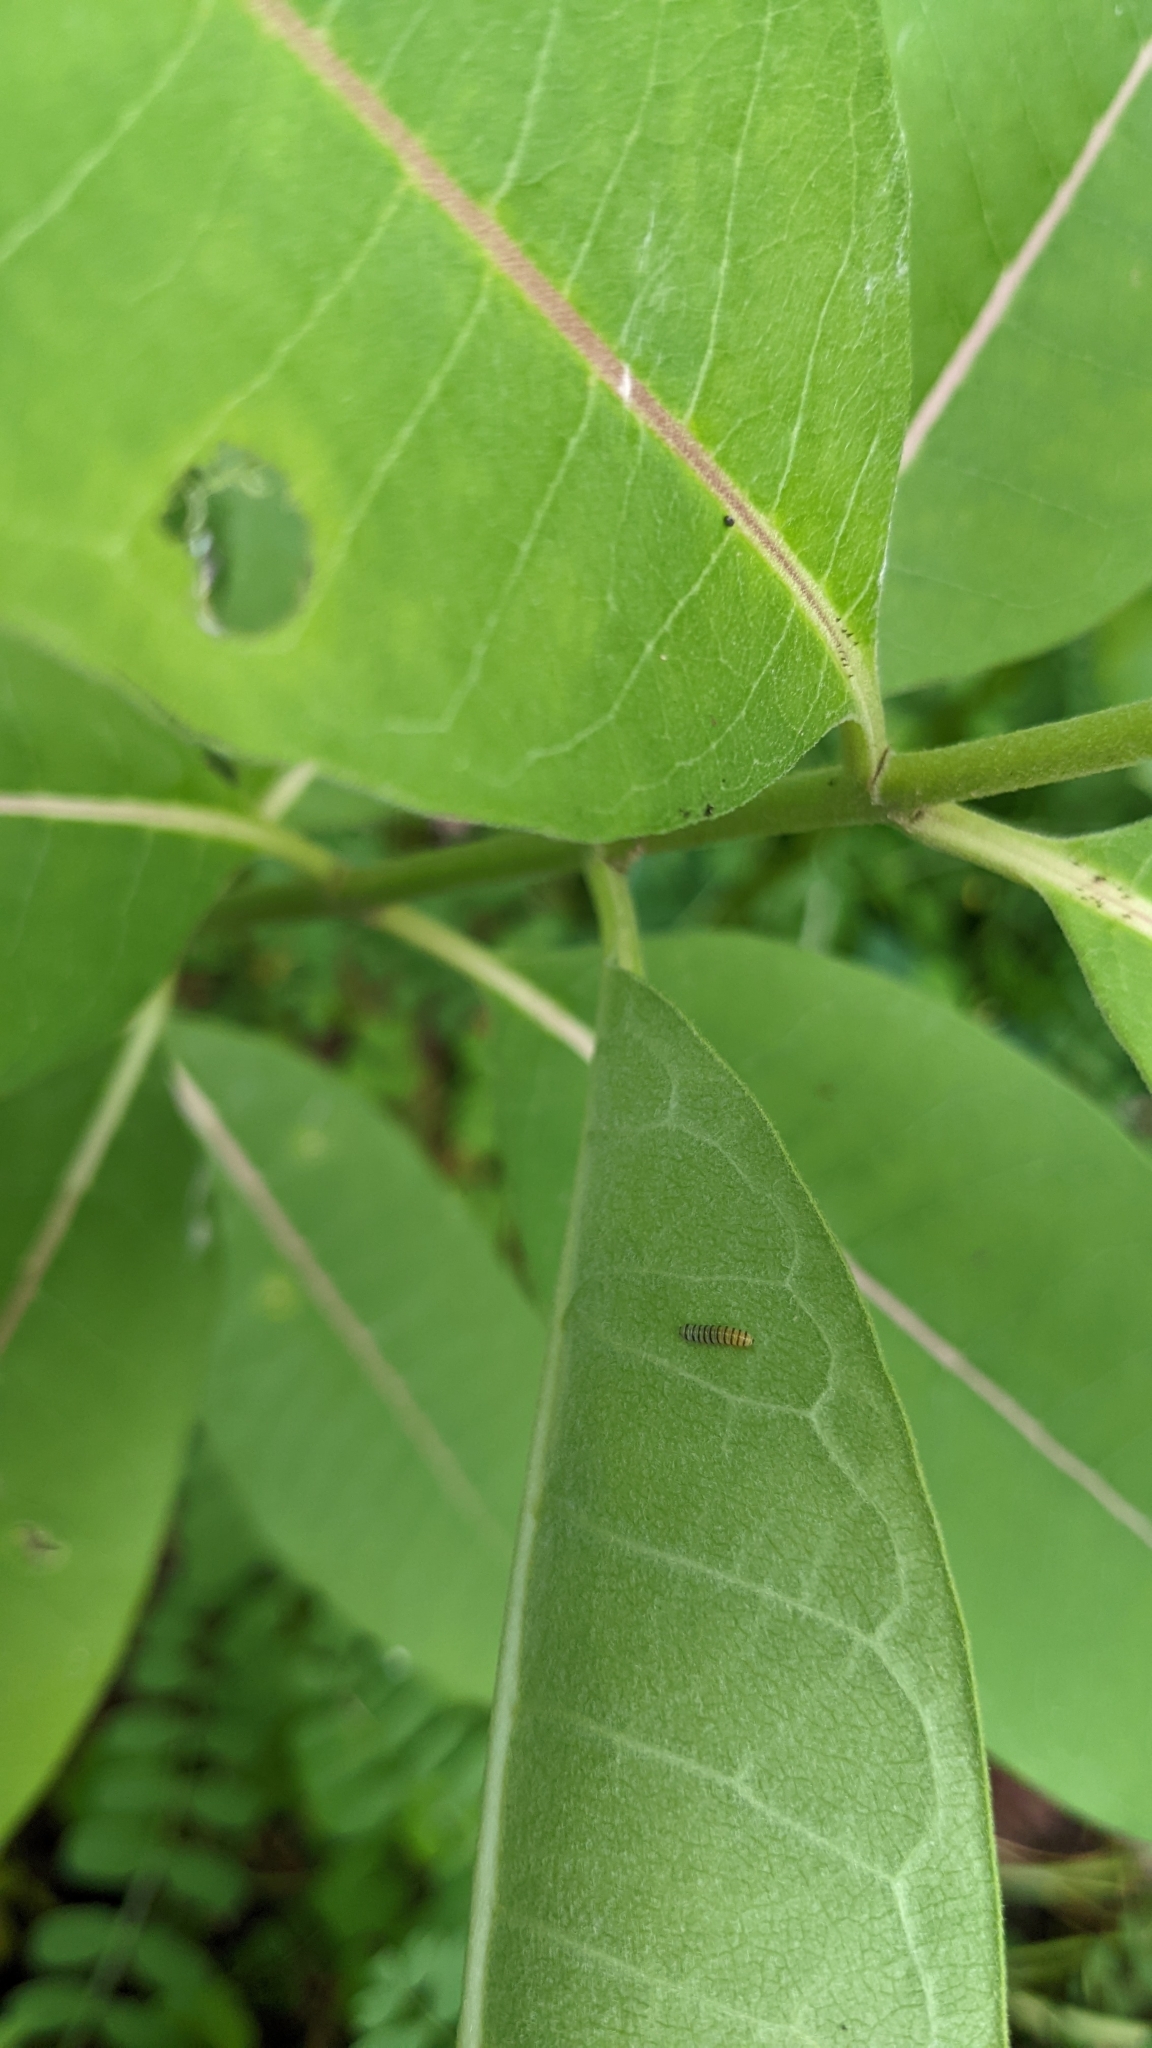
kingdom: Animalia
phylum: Arthropoda
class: Insecta
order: Lepidoptera
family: Nymphalidae
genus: Danaus
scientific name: Danaus plexippus
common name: Monarch
